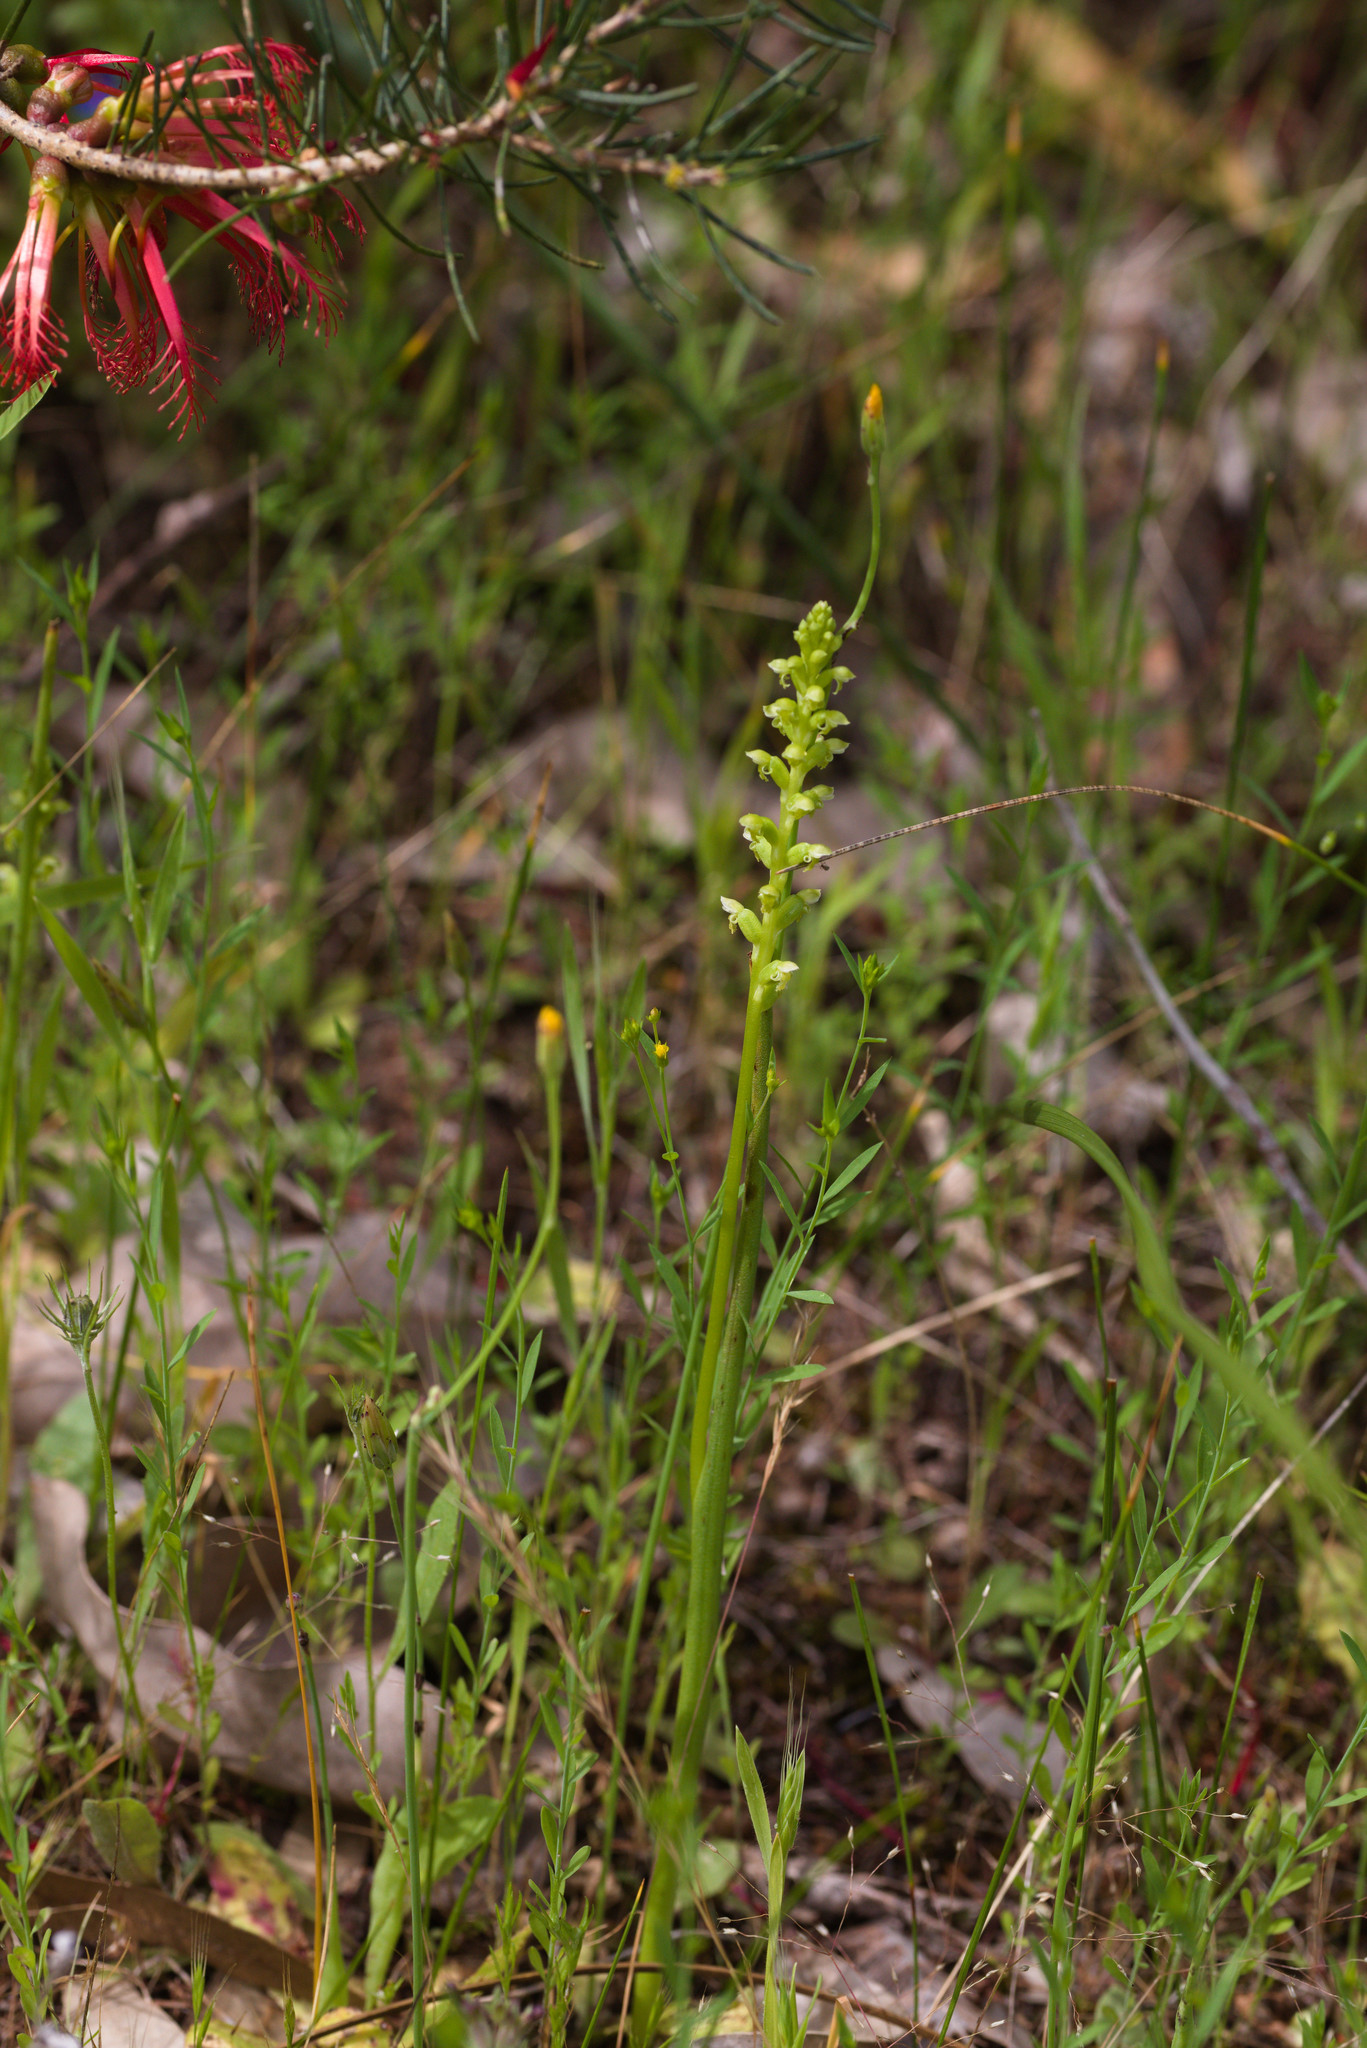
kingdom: Plantae
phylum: Tracheophyta
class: Liliopsida
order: Asparagales
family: Orchidaceae
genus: Microtis
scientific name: Microtis media
